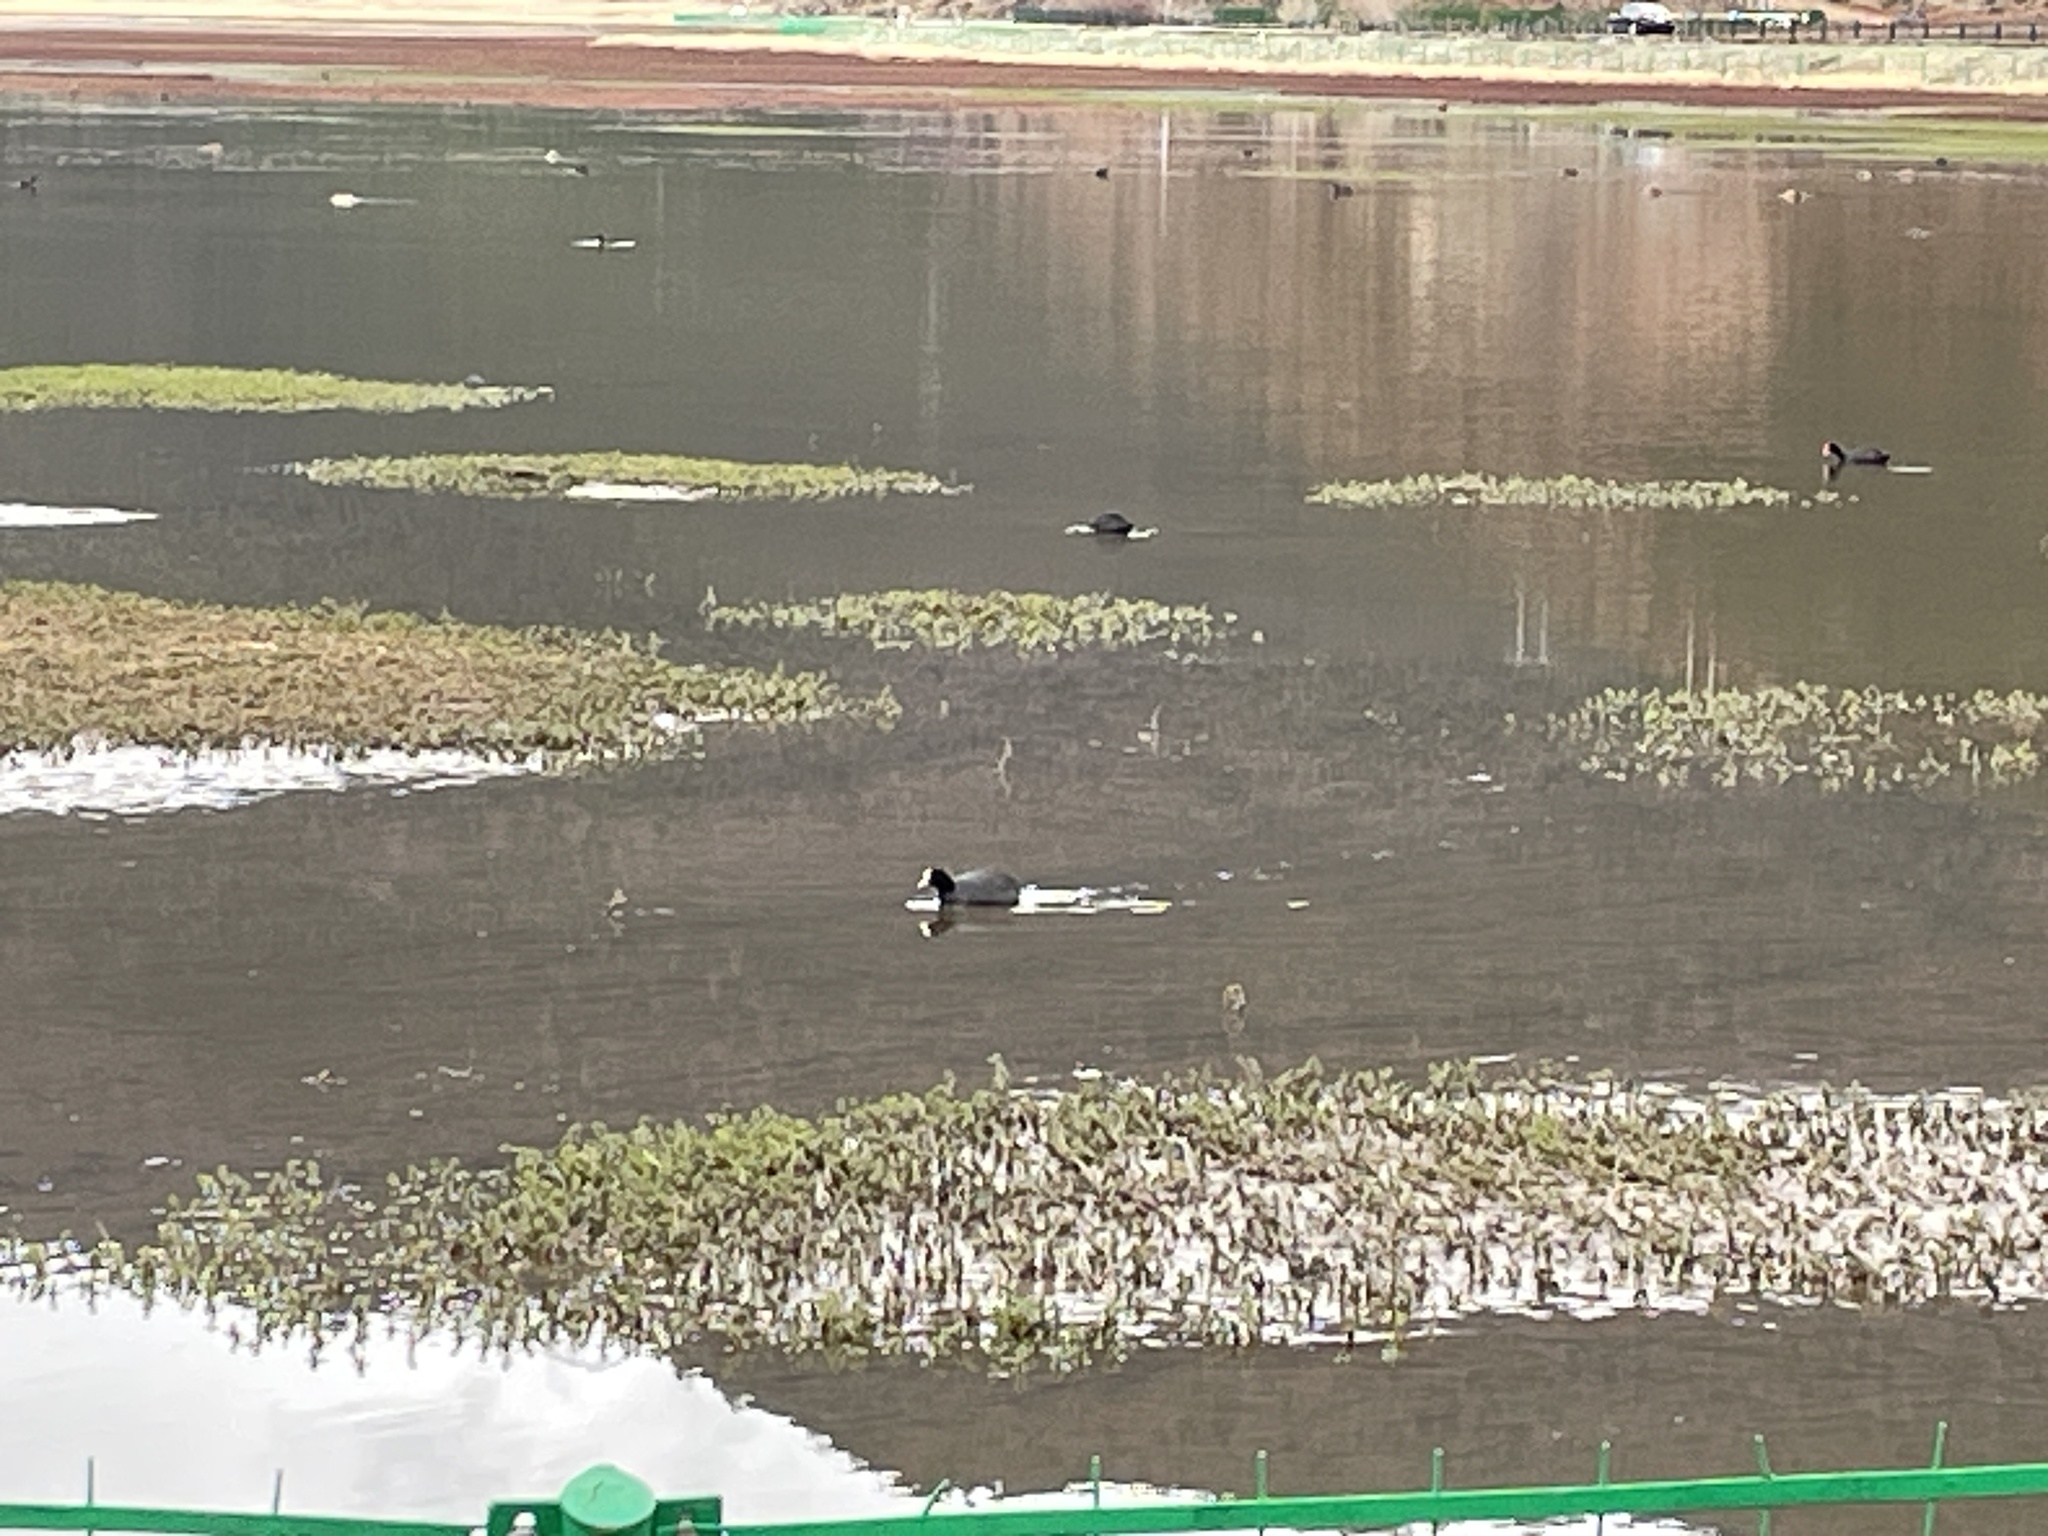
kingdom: Animalia
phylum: Chordata
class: Aves
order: Gruiformes
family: Rallidae
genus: Fulica
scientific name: Fulica atra
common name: Eurasian coot
